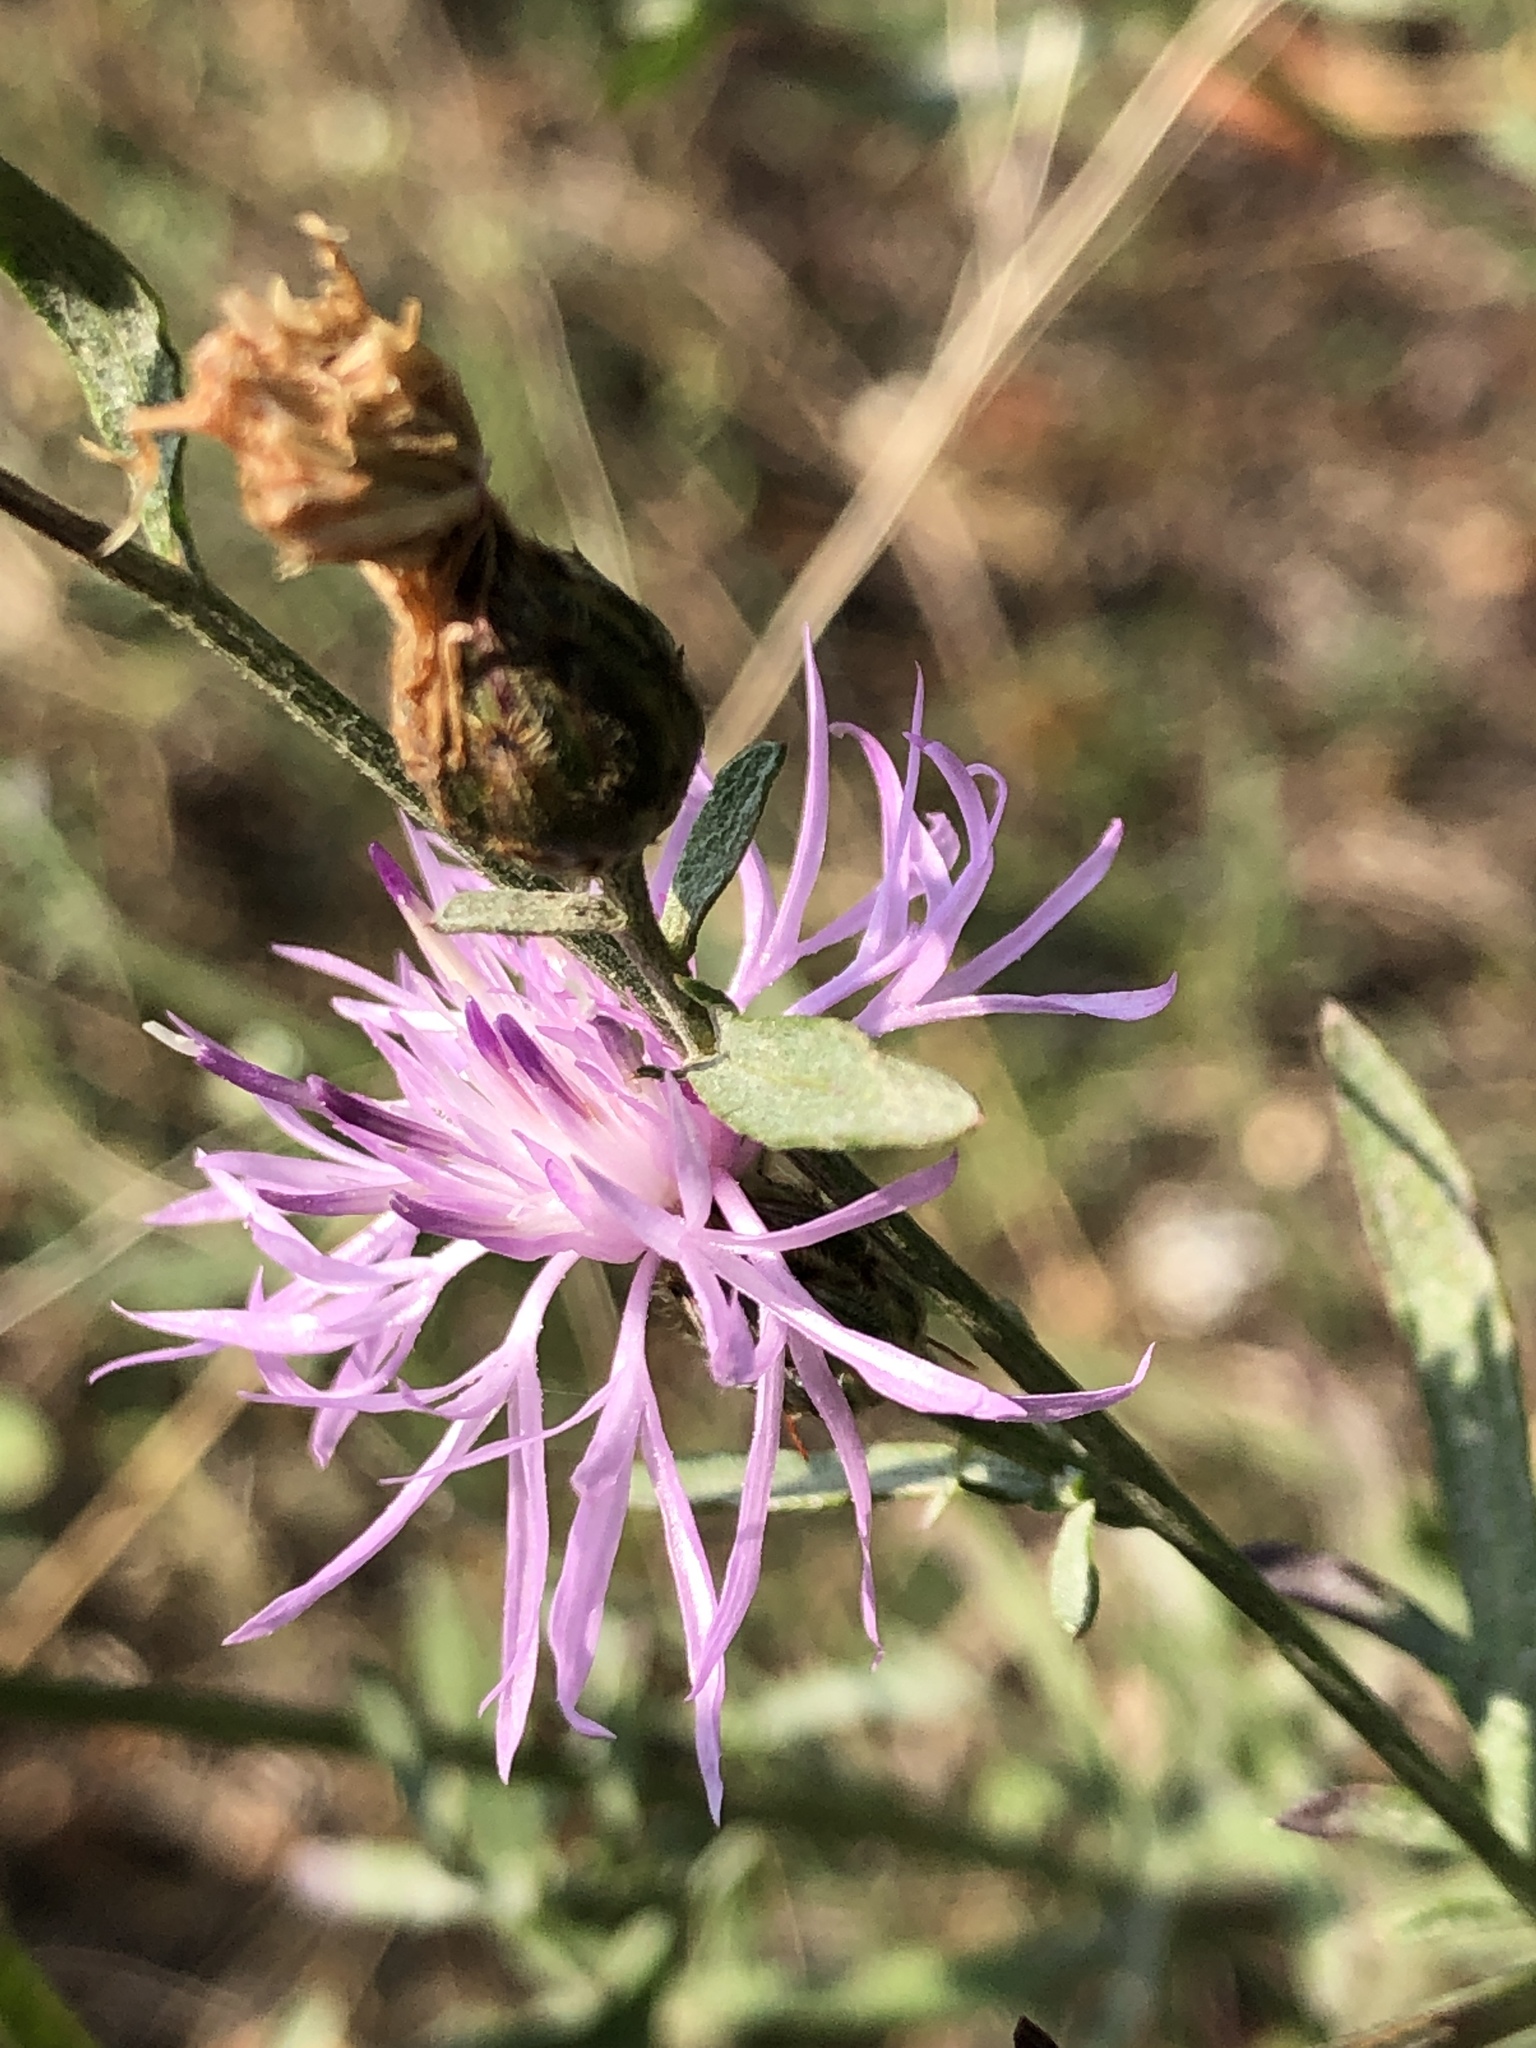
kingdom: Plantae
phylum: Tracheophyta
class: Magnoliopsida
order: Asterales
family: Asteraceae
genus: Centaurea
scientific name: Centaurea stoebe
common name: Spotted knapweed
